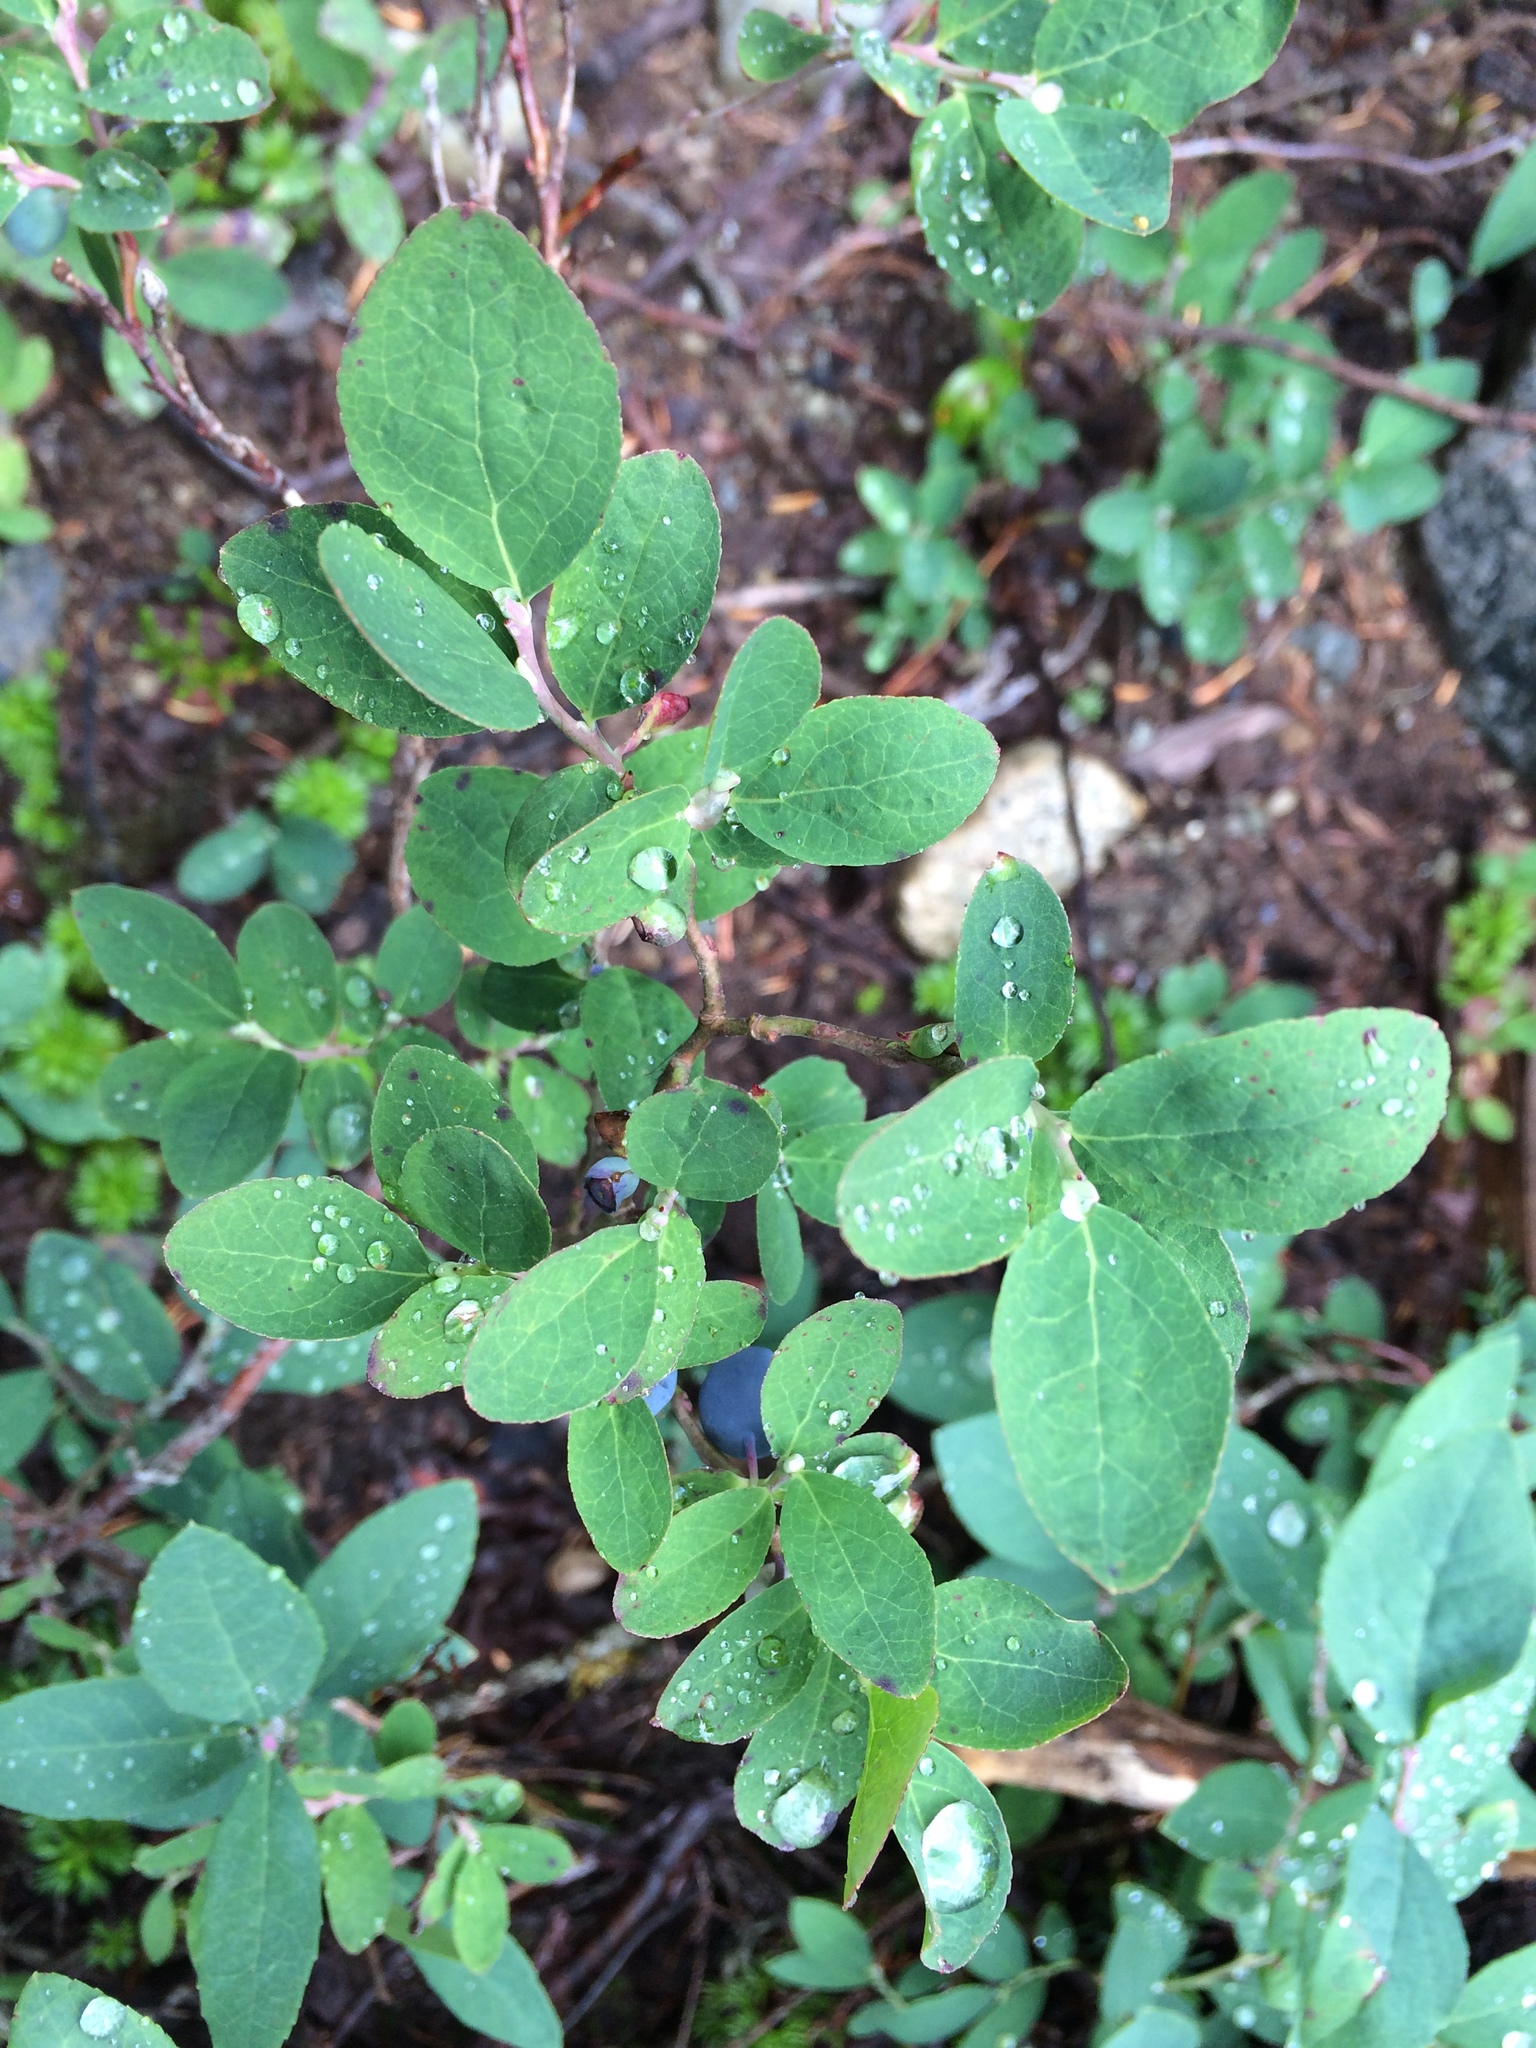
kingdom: Plantae
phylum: Tracheophyta
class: Magnoliopsida
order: Ericales
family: Ericaceae
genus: Vaccinium
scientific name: Vaccinium deliciosum
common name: Cascade bilberry
